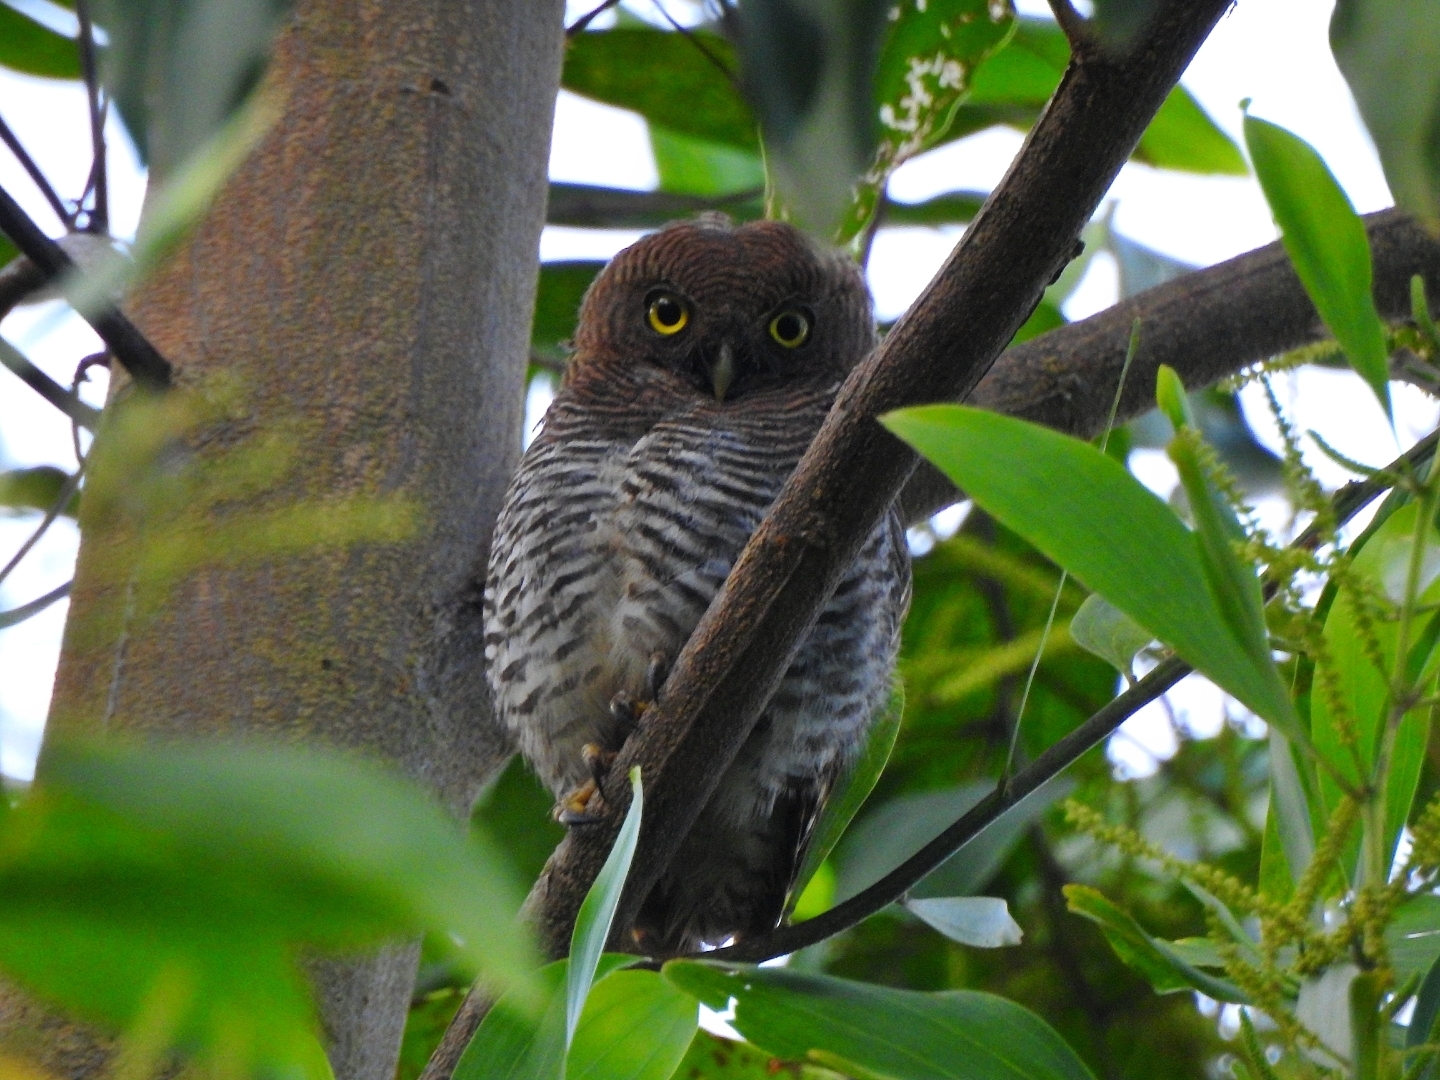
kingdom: Animalia
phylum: Chordata
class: Aves
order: Strigiformes
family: Strigidae
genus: Glaucidium
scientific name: Glaucidium radiatum
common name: Jungle owlet
